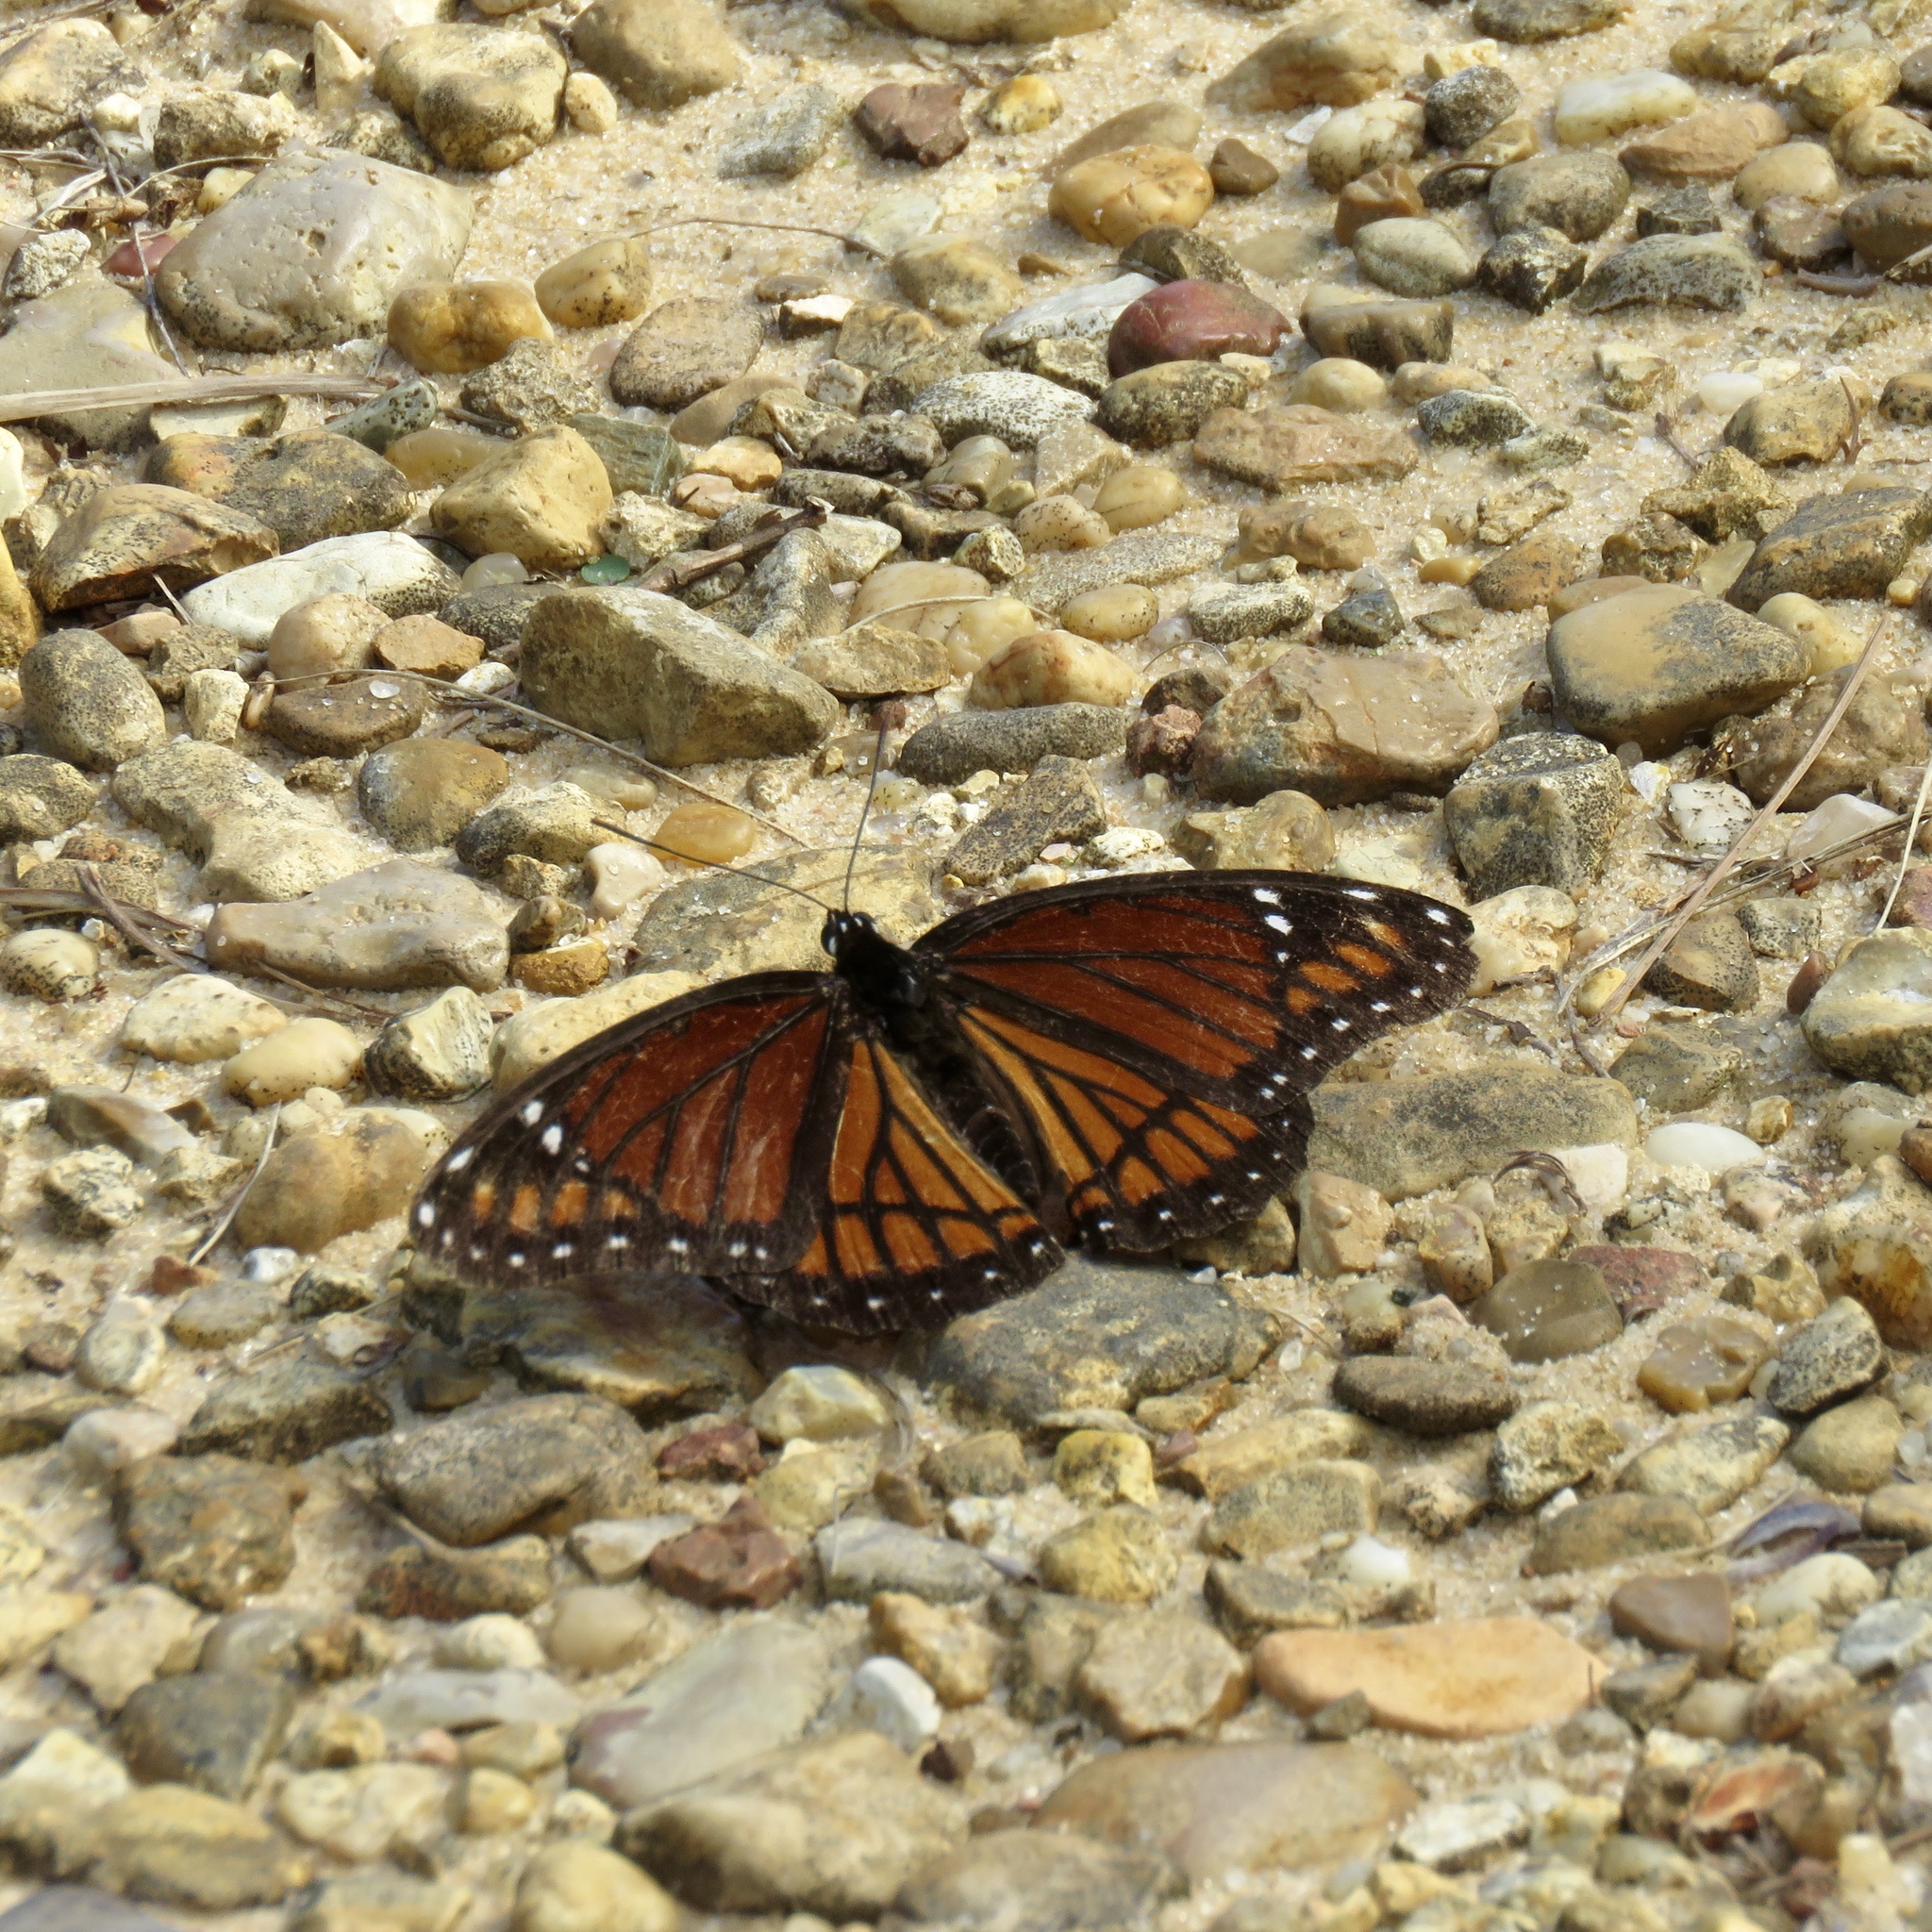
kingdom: Animalia
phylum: Arthropoda
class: Insecta
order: Lepidoptera
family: Nymphalidae
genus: Limenitis
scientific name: Limenitis archippus
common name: Viceroy
